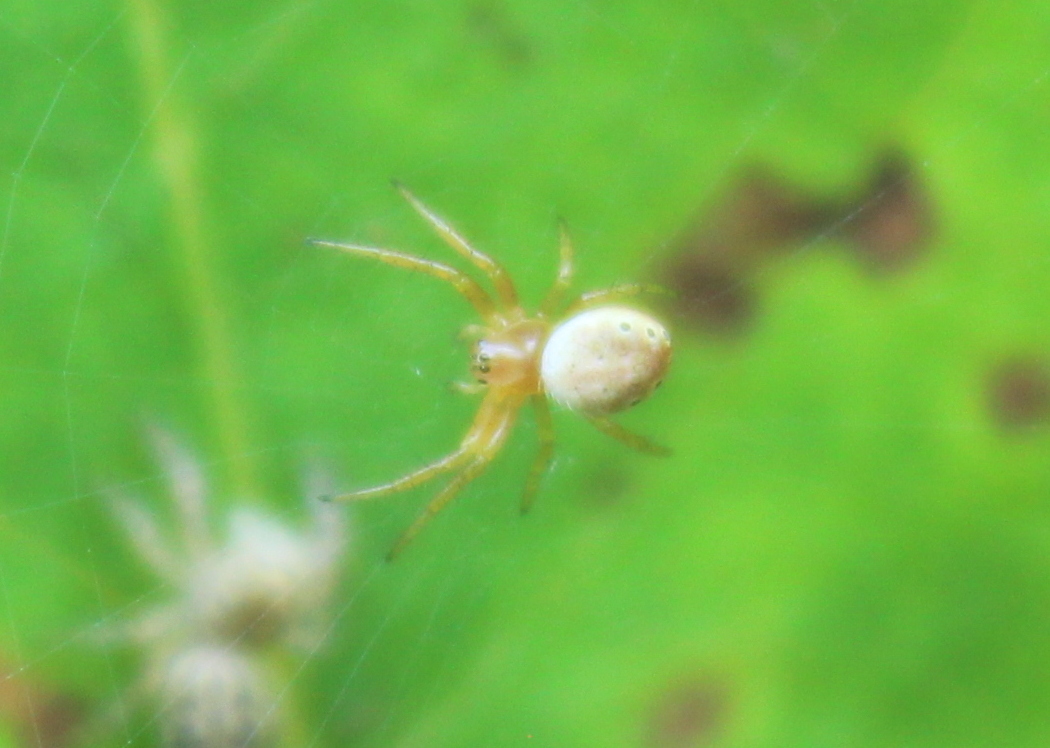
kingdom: Animalia
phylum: Arthropoda
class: Arachnida
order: Araneae
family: Araneidae
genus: Araniella
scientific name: Araniella displicata
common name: Sixspotted orb weaver
